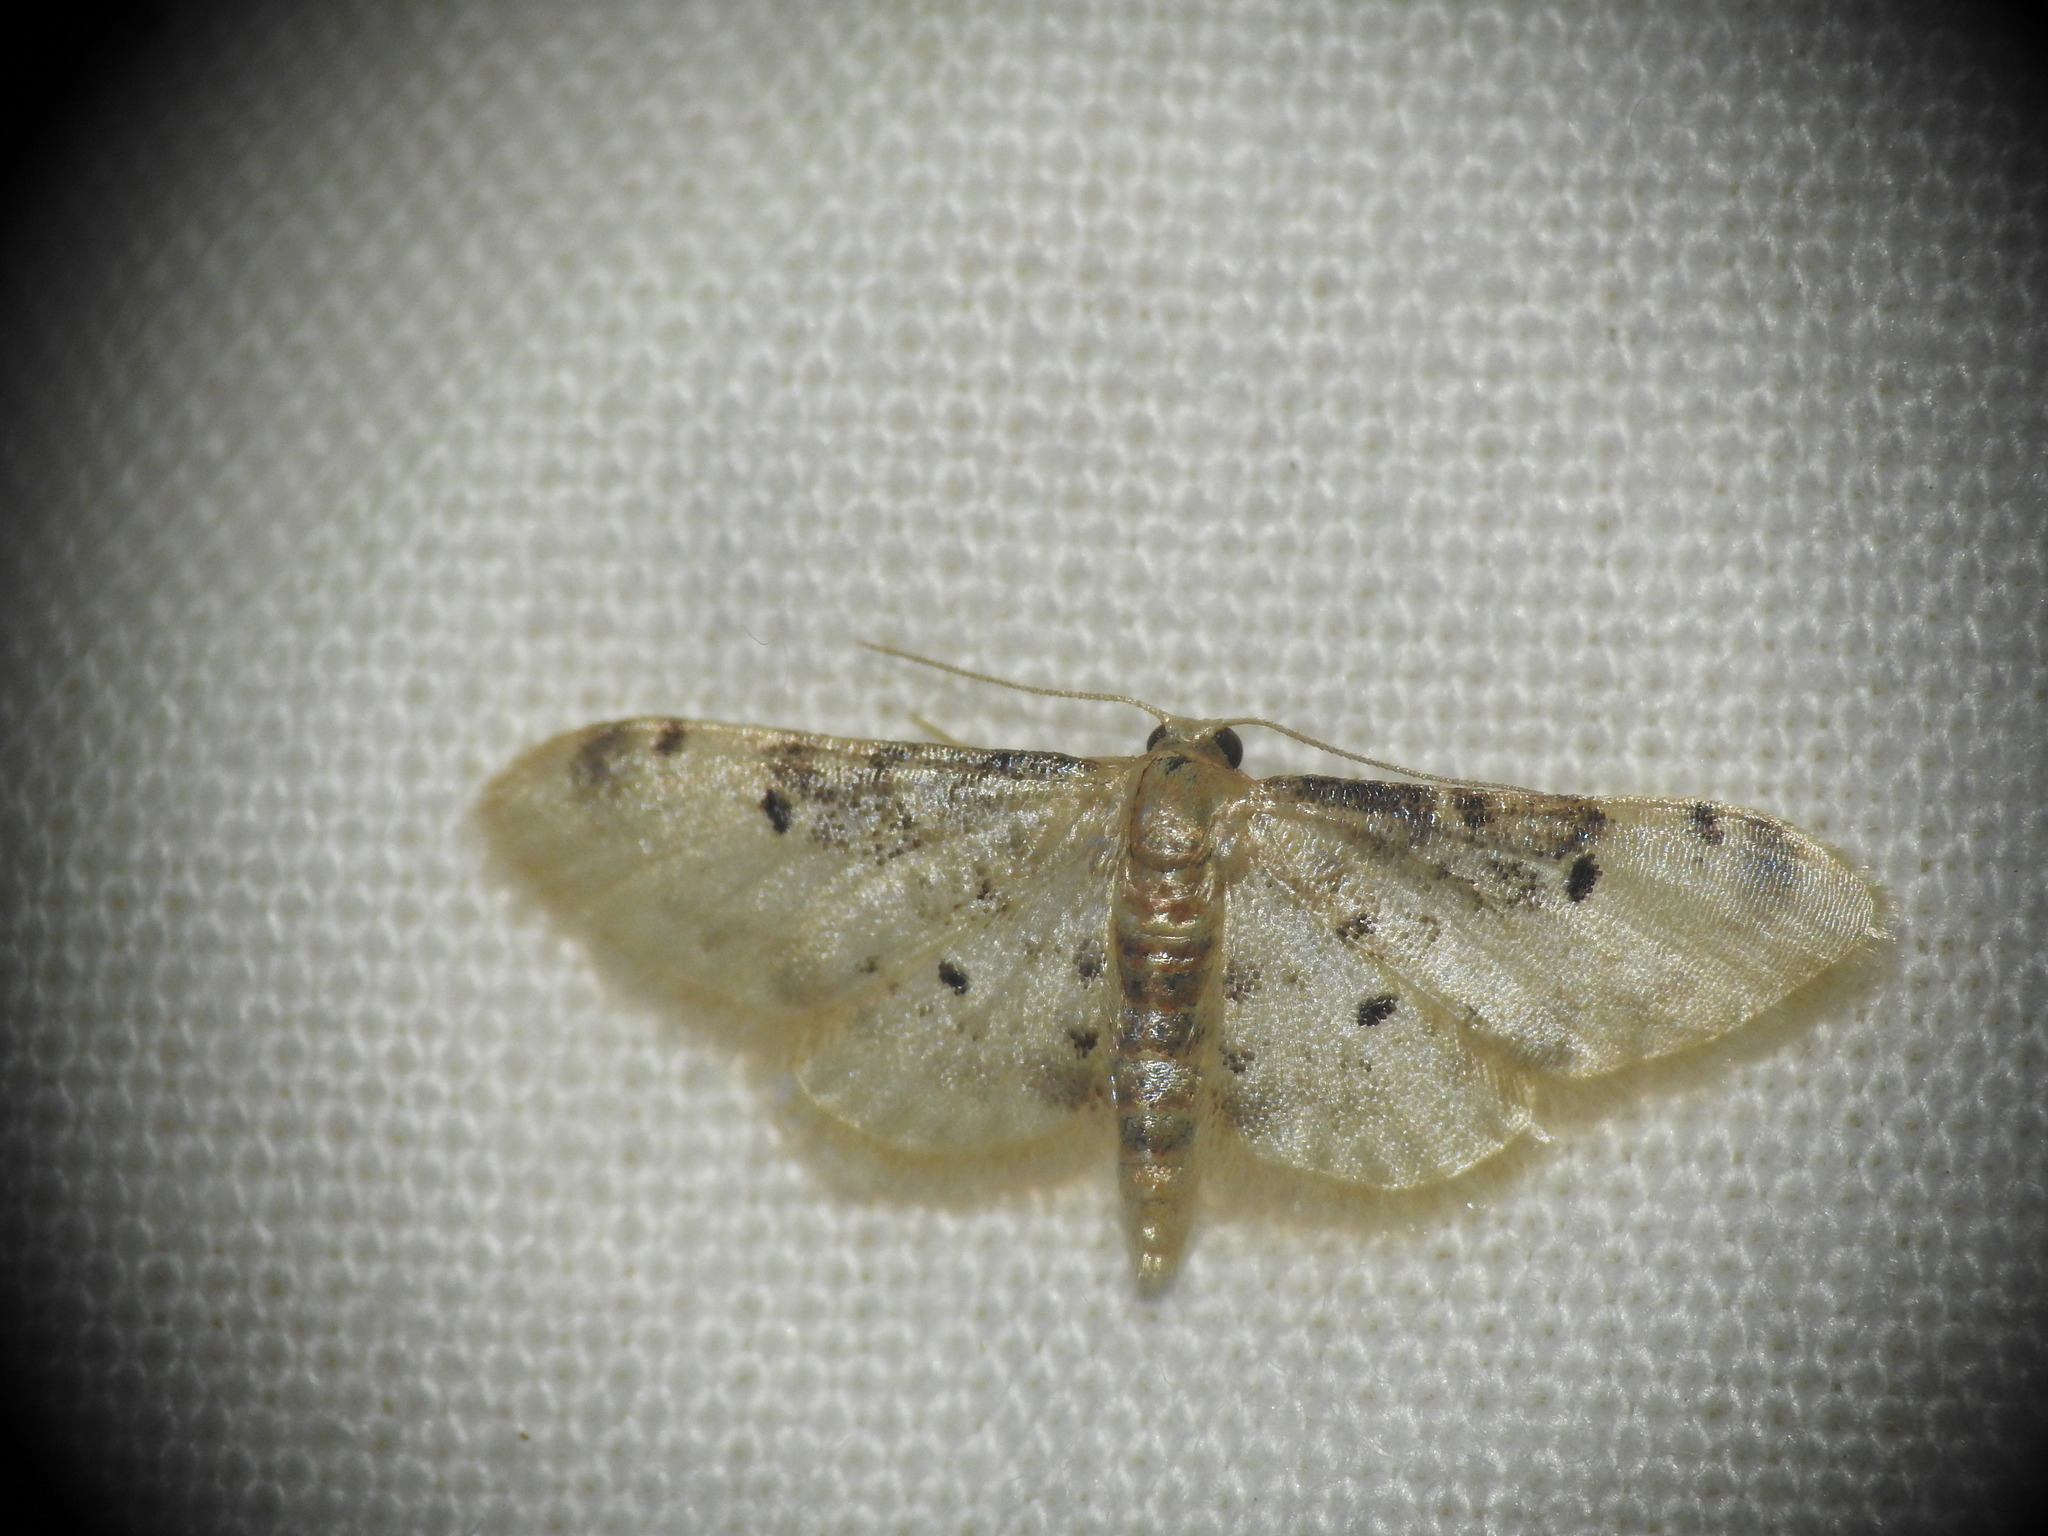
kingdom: Animalia
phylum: Arthropoda
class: Insecta
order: Lepidoptera
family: Geometridae
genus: Idaea
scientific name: Idaea filicata
